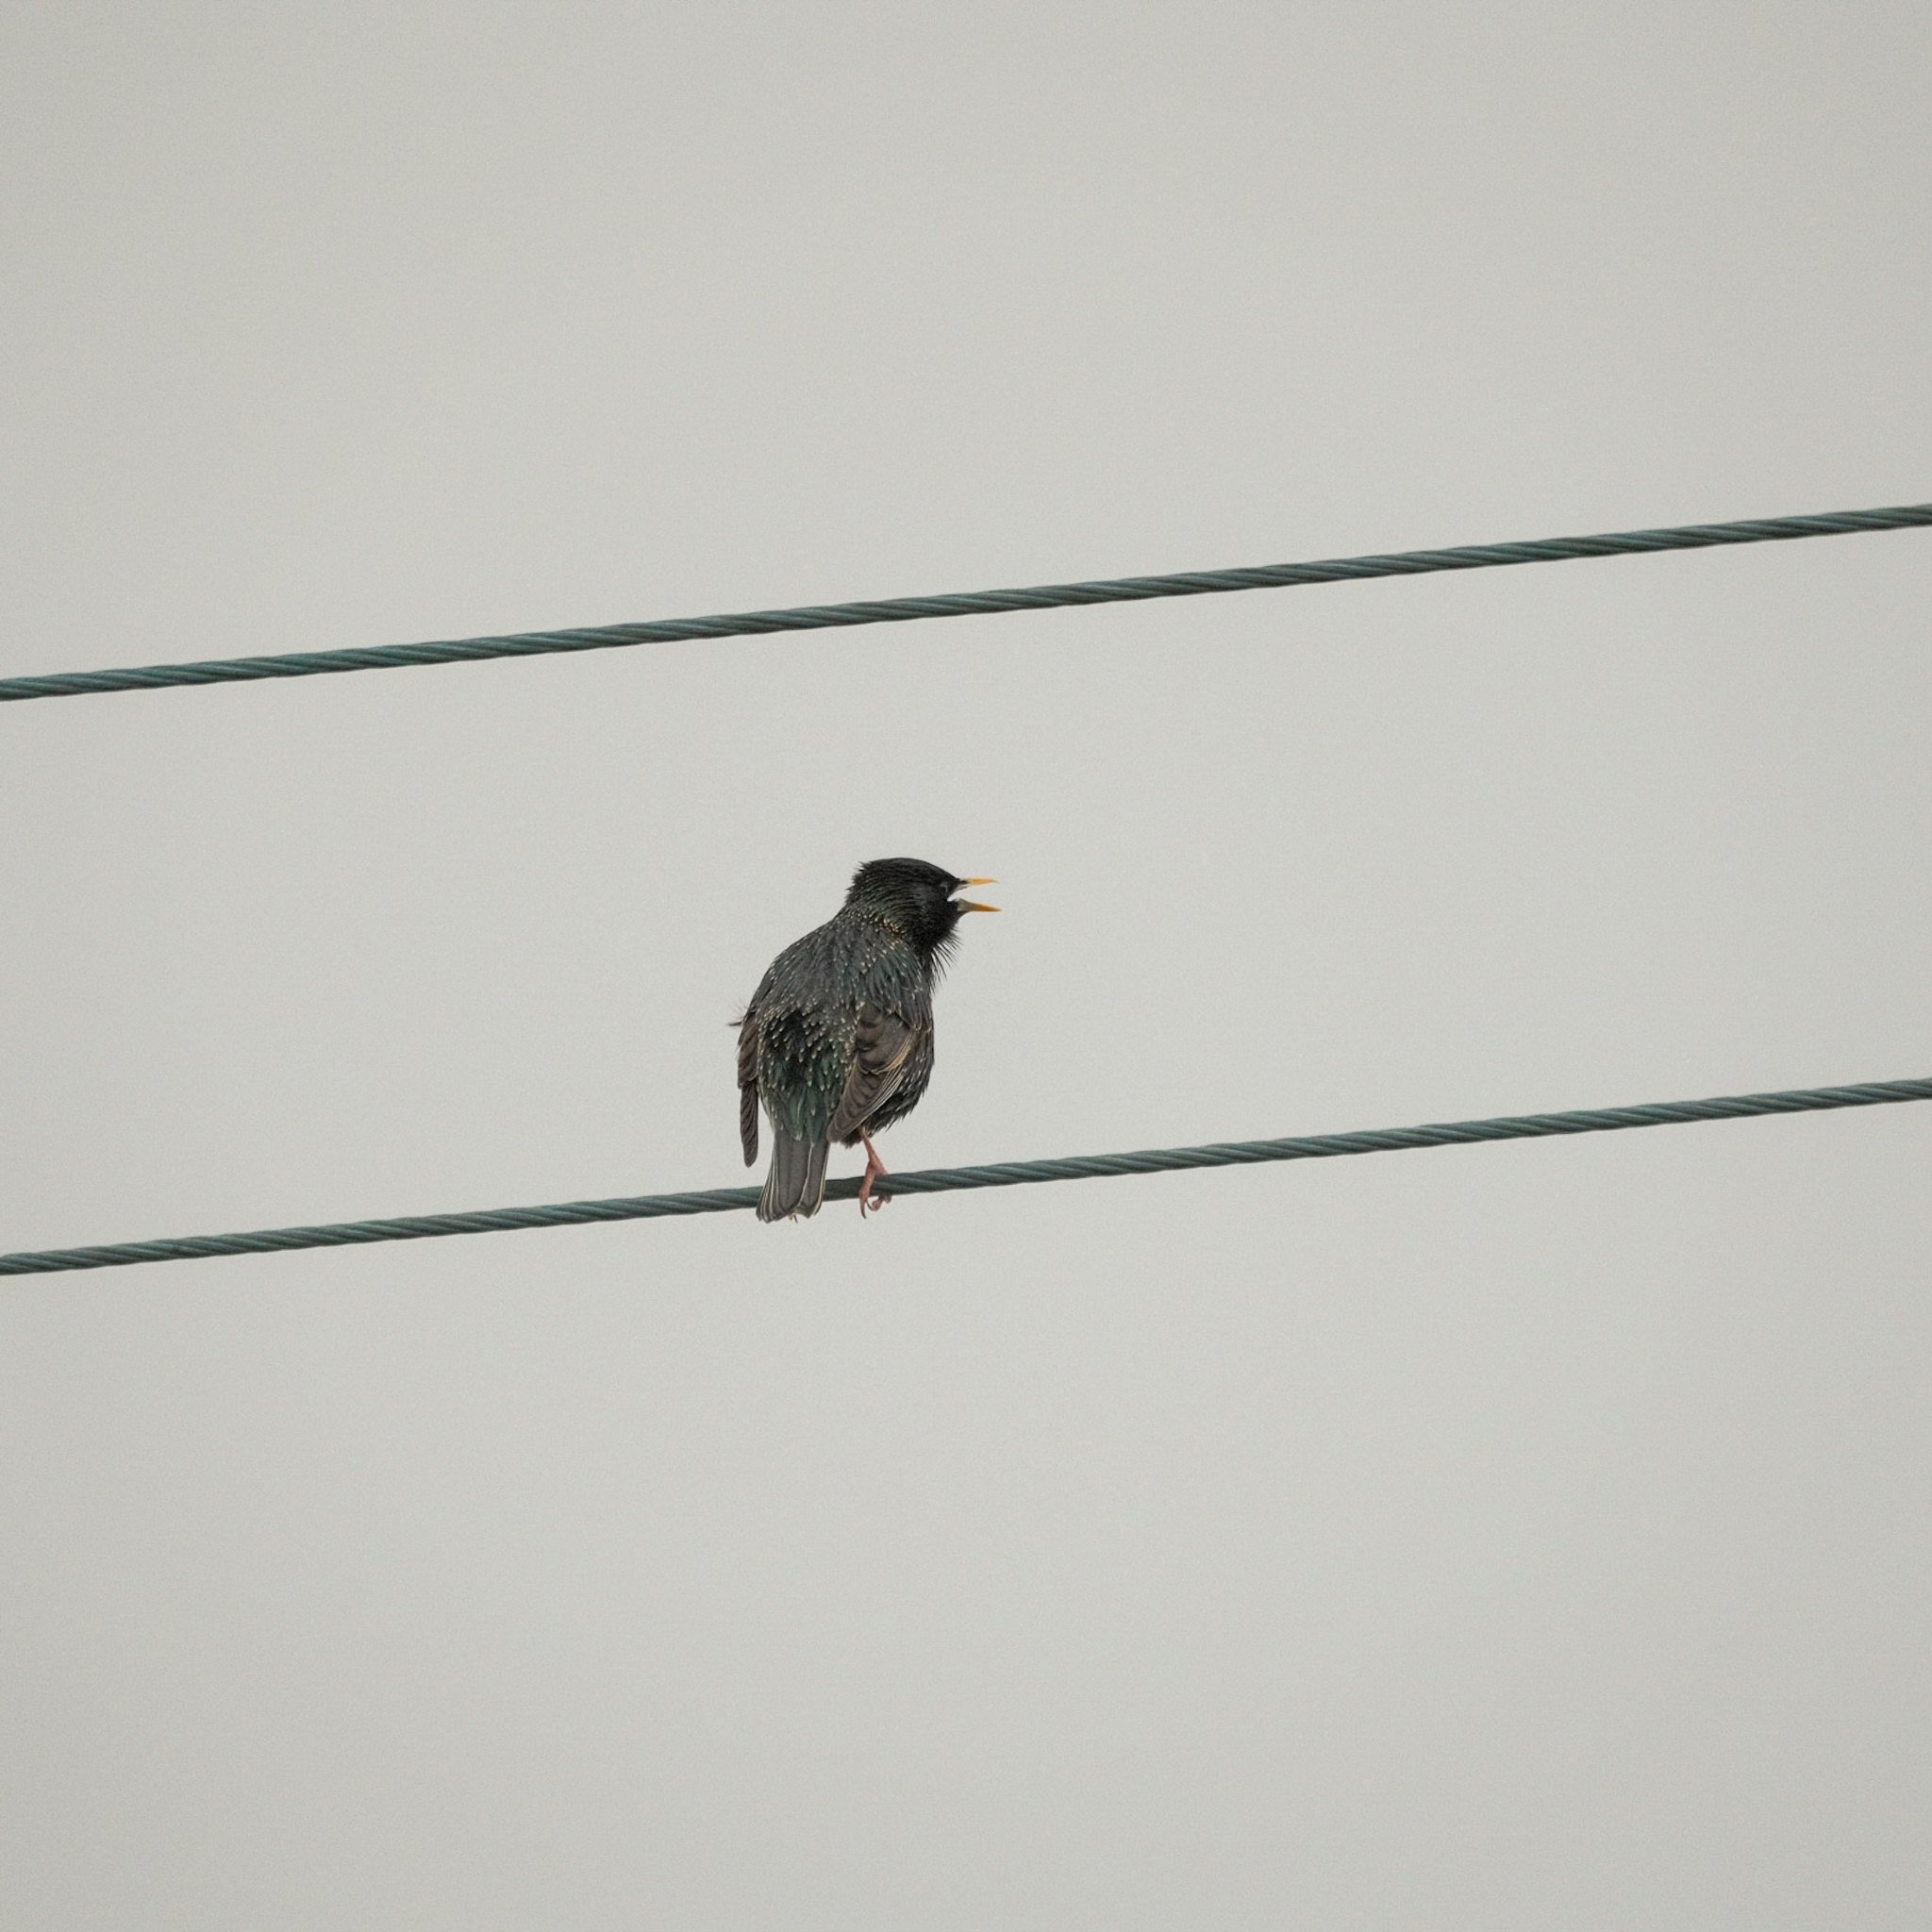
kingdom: Animalia
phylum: Chordata
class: Aves
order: Passeriformes
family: Sturnidae
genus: Sturnus
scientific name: Sturnus vulgaris
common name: Common starling
